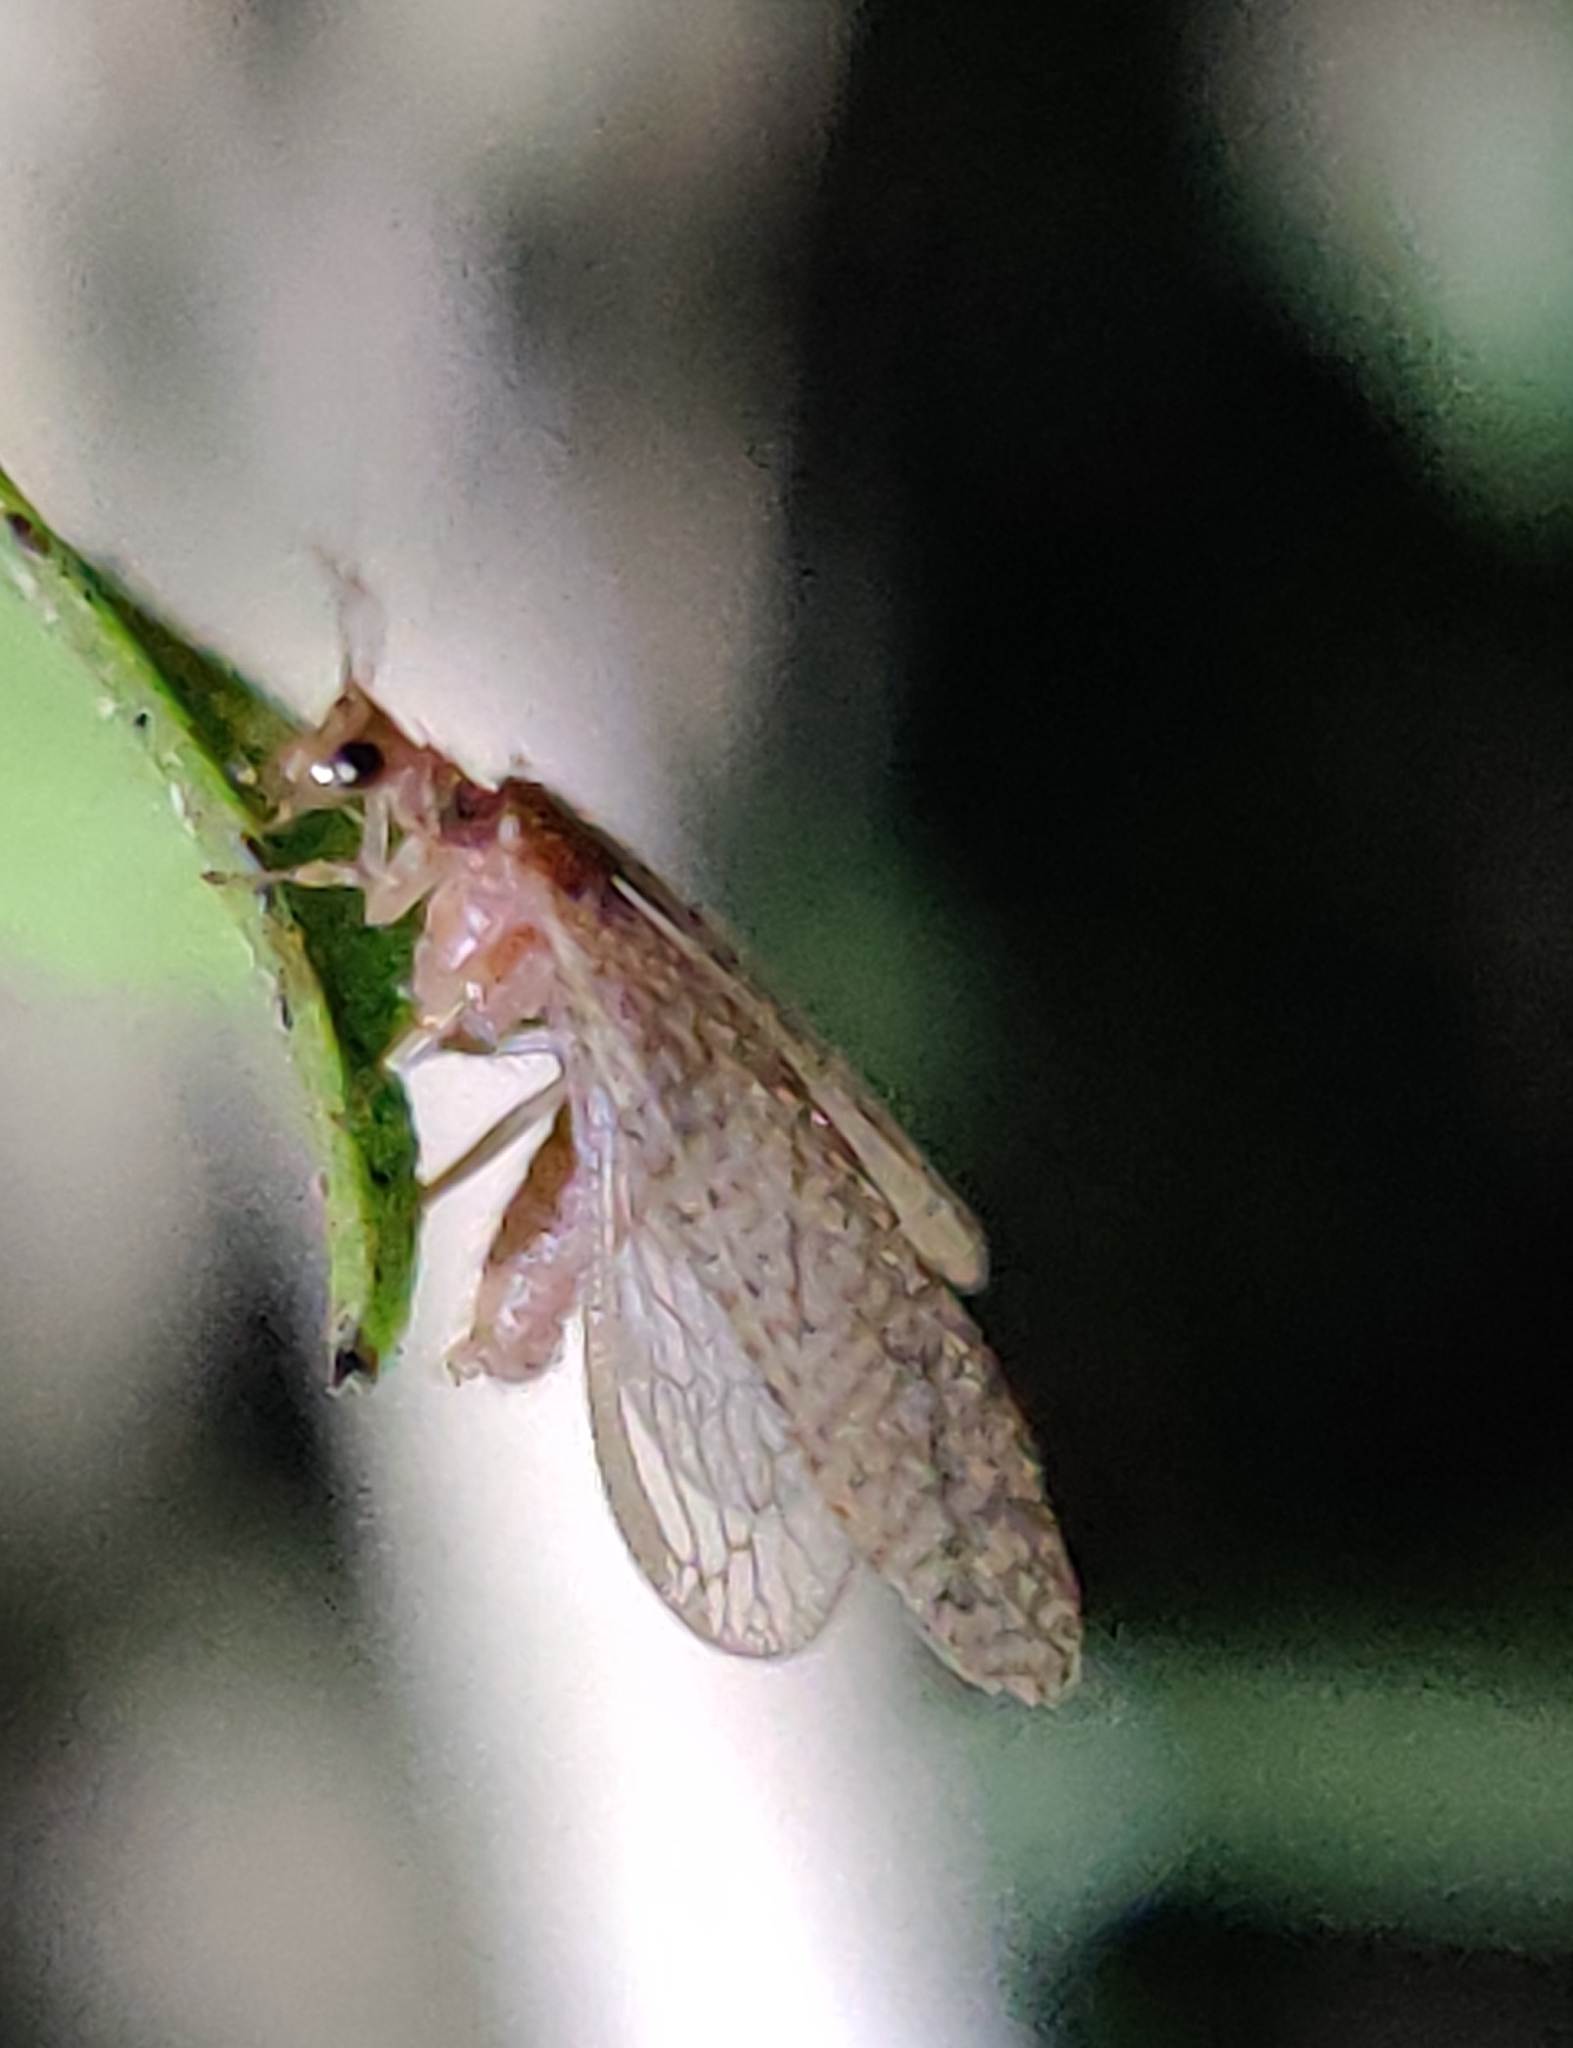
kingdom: Animalia
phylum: Arthropoda
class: Insecta
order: Neuroptera
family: Hemerobiidae
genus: Micromus
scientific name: Micromus posticus
